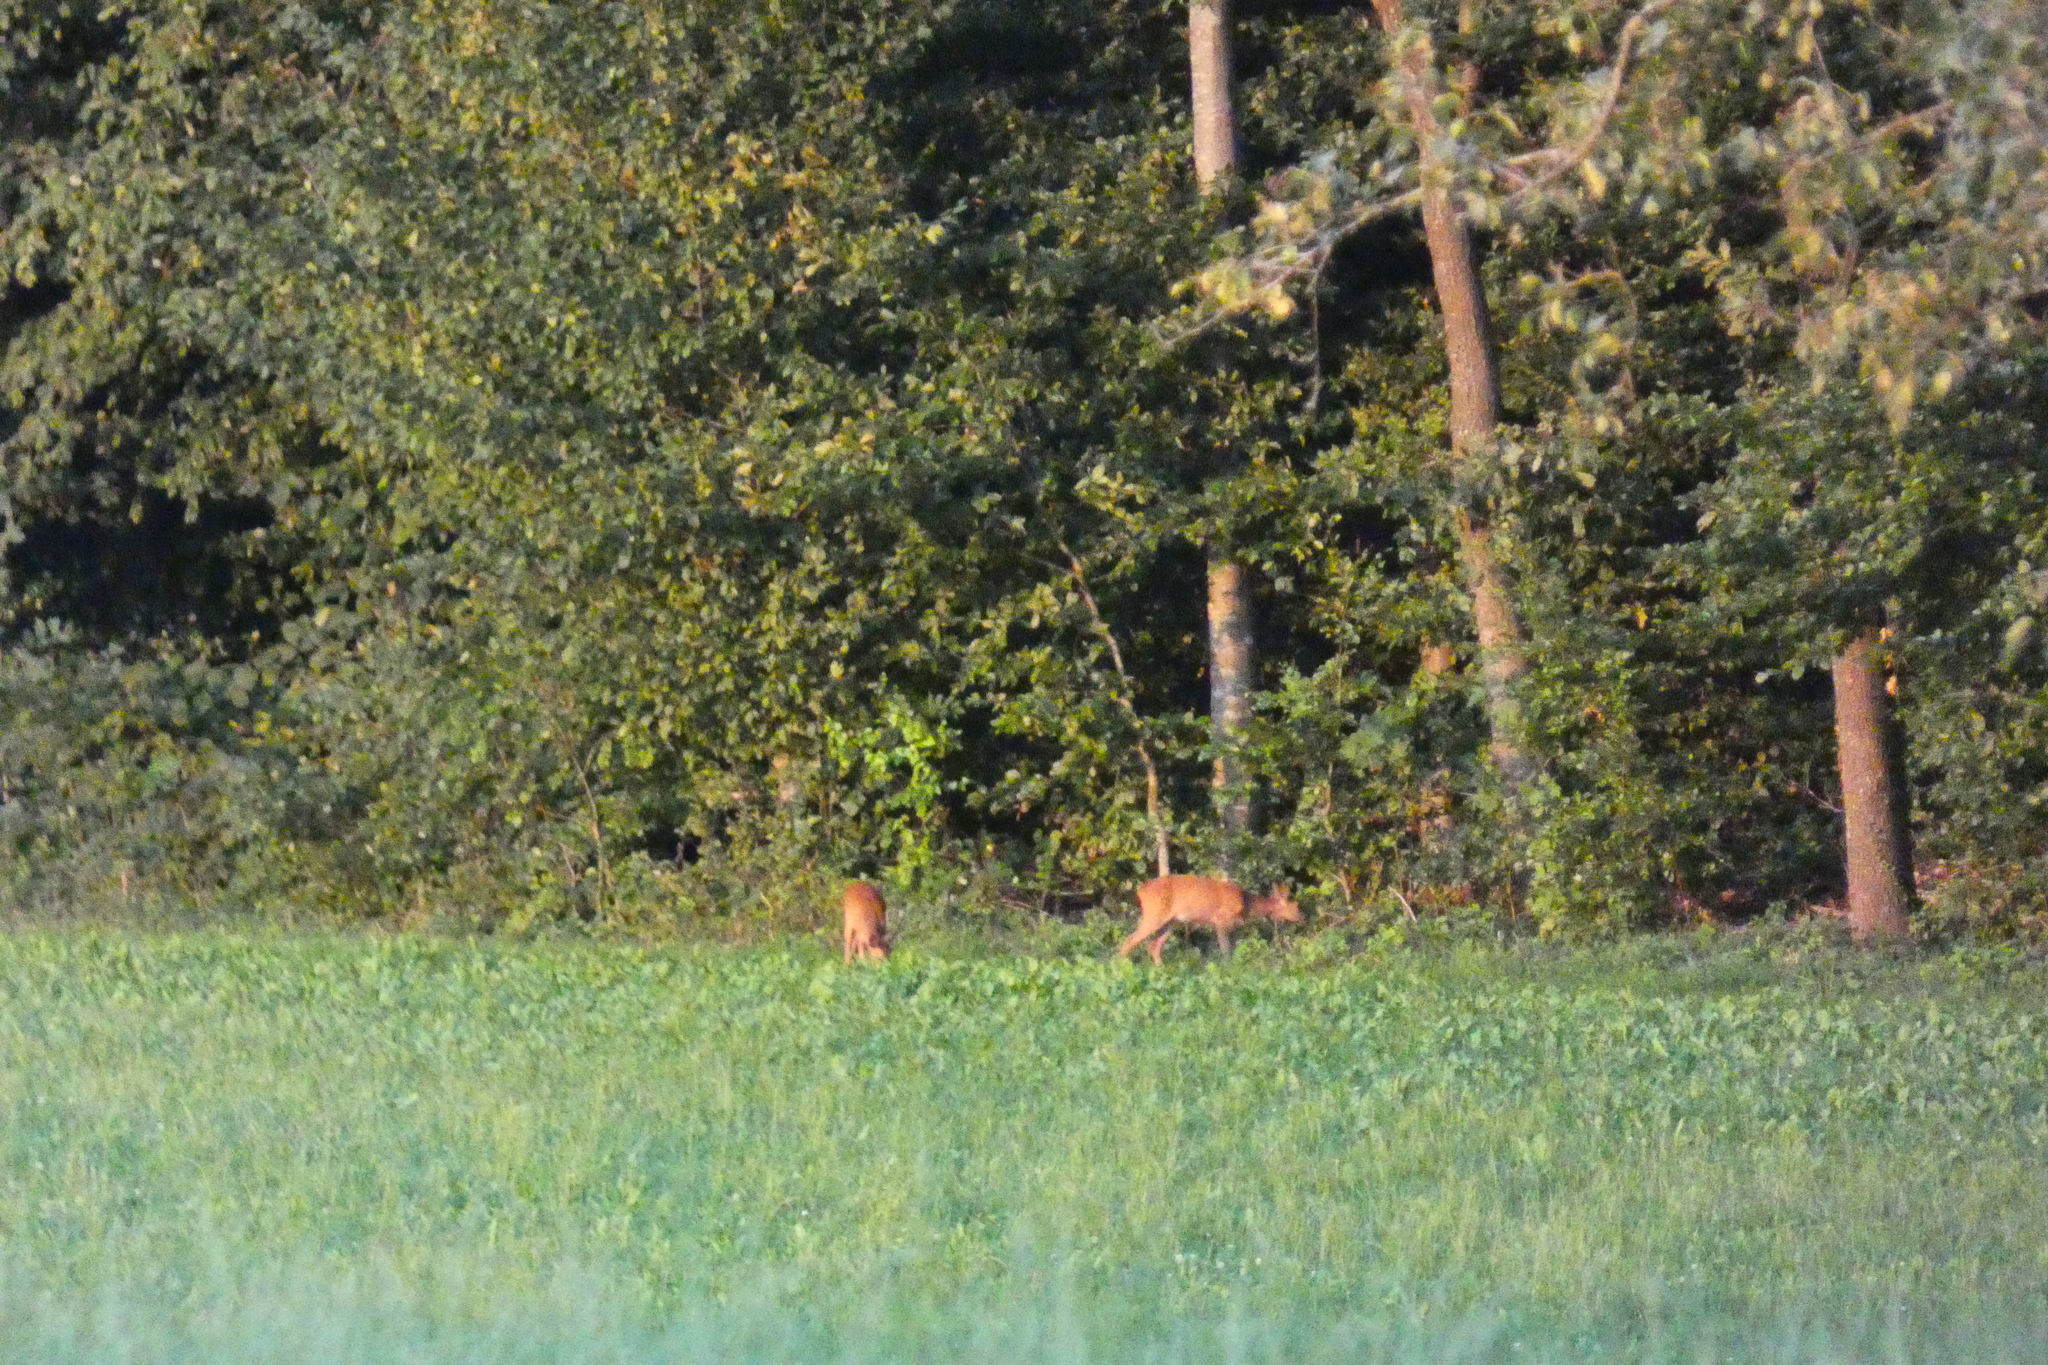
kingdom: Animalia
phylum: Chordata
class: Mammalia
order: Artiodactyla
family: Cervidae
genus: Capreolus
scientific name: Capreolus capreolus
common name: Western roe deer
